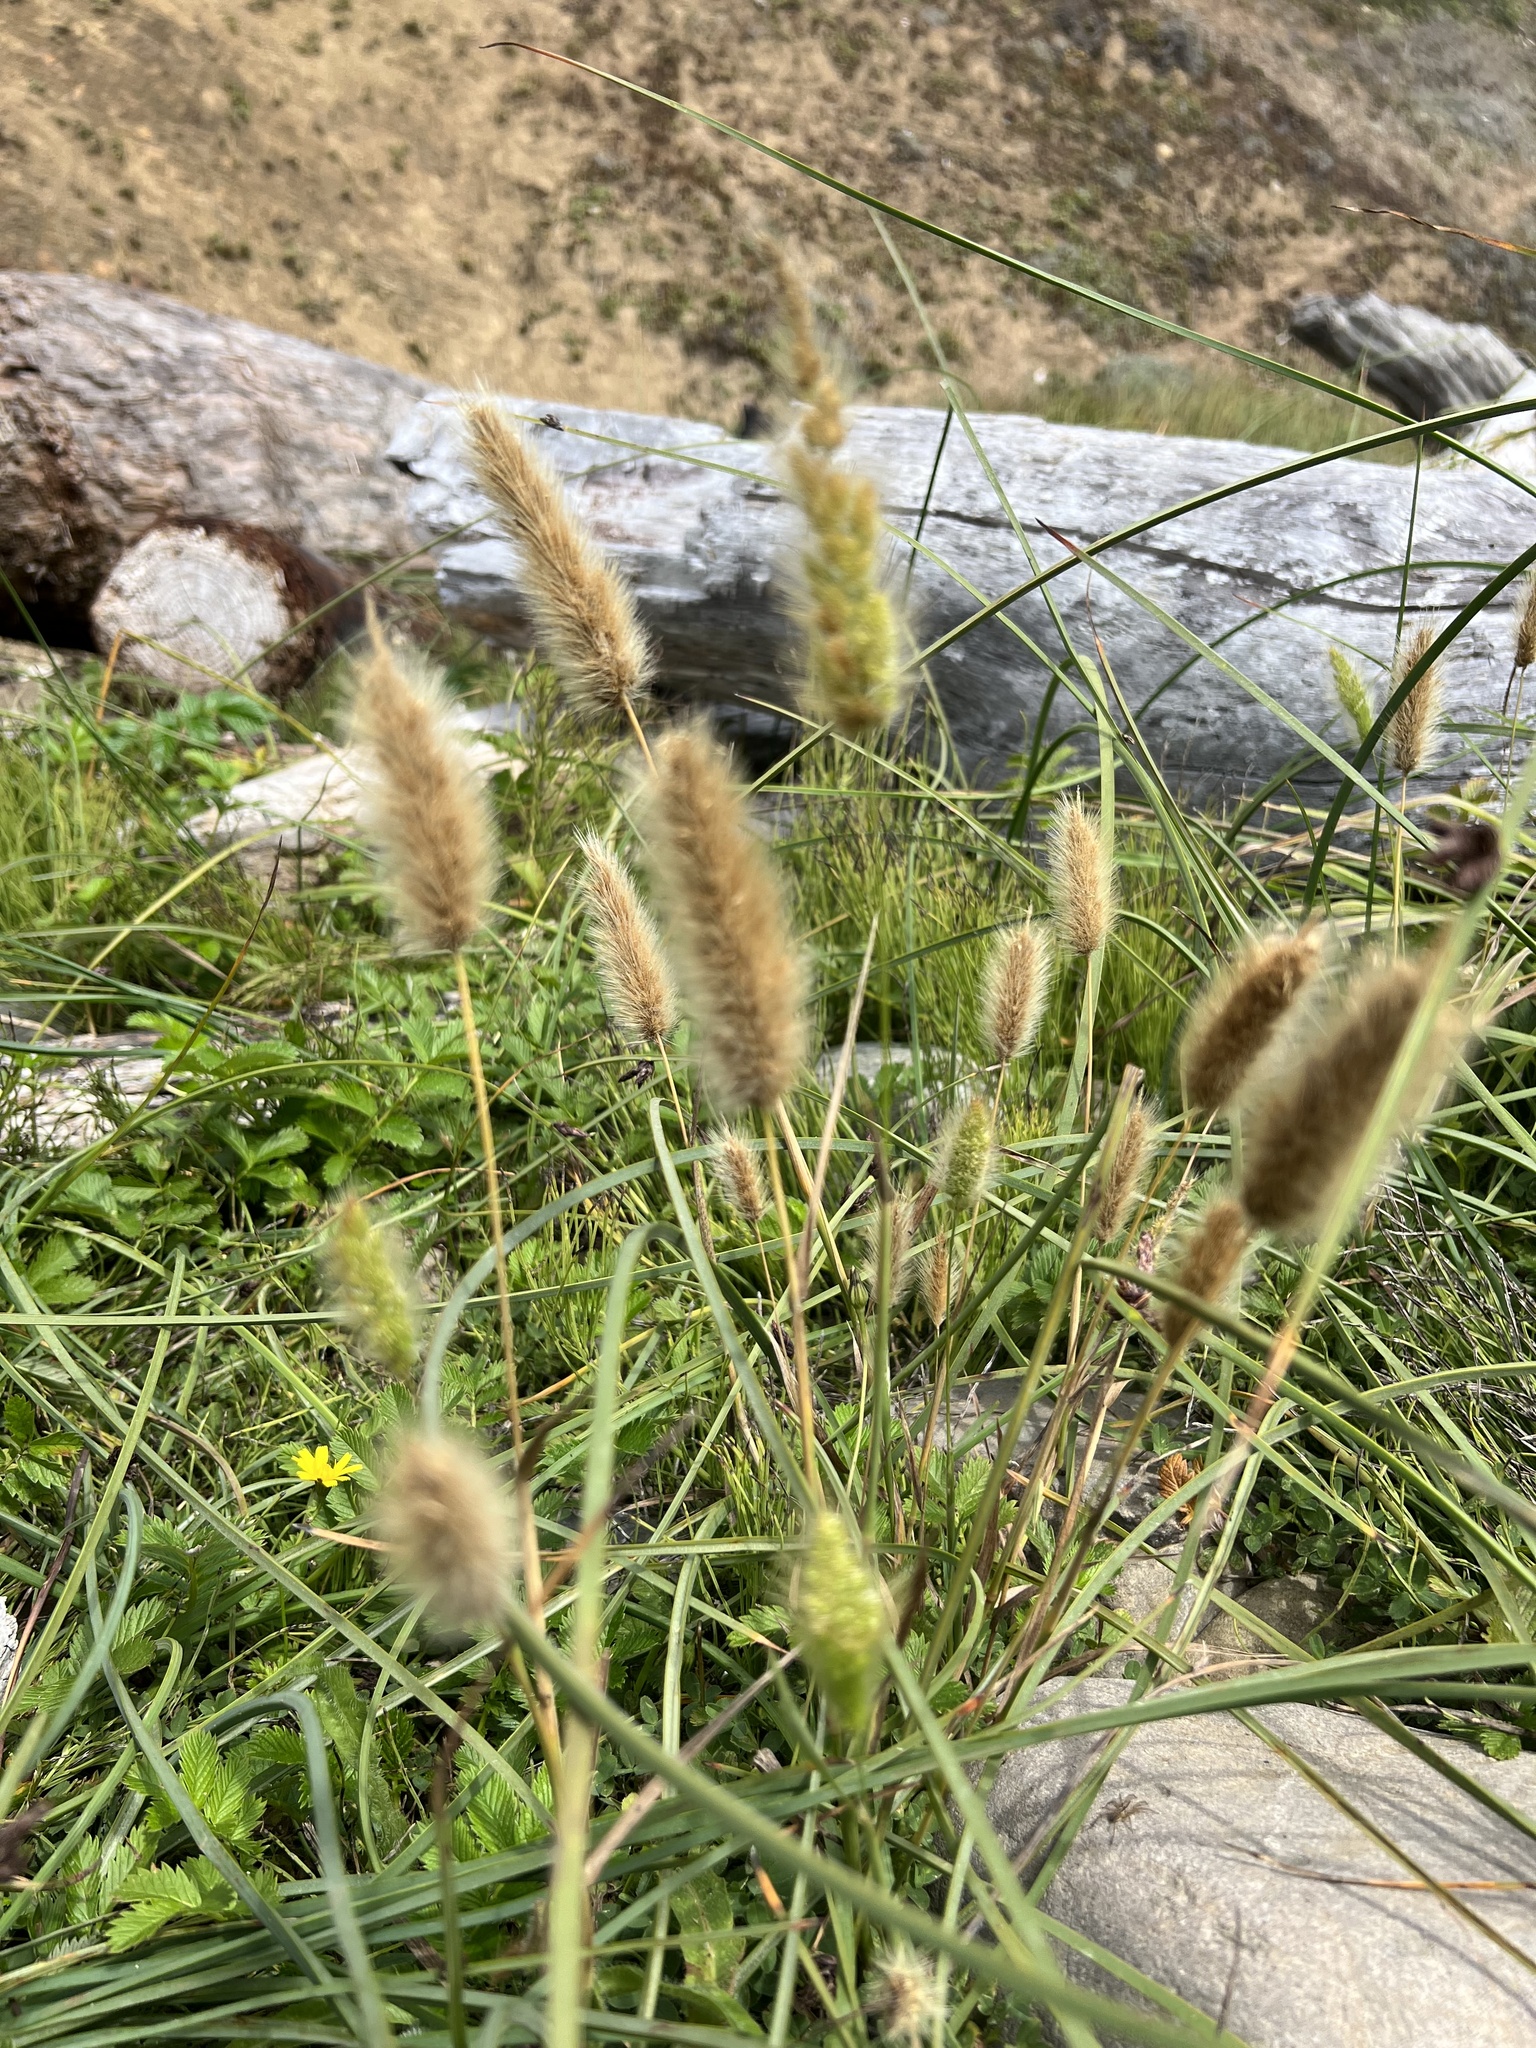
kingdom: Plantae
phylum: Tracheophyta
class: Liliopsida
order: Poales
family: Poaceae
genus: Polypogon
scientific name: Polypogon monspeliensis
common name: Annual rabbitsfoot grass
